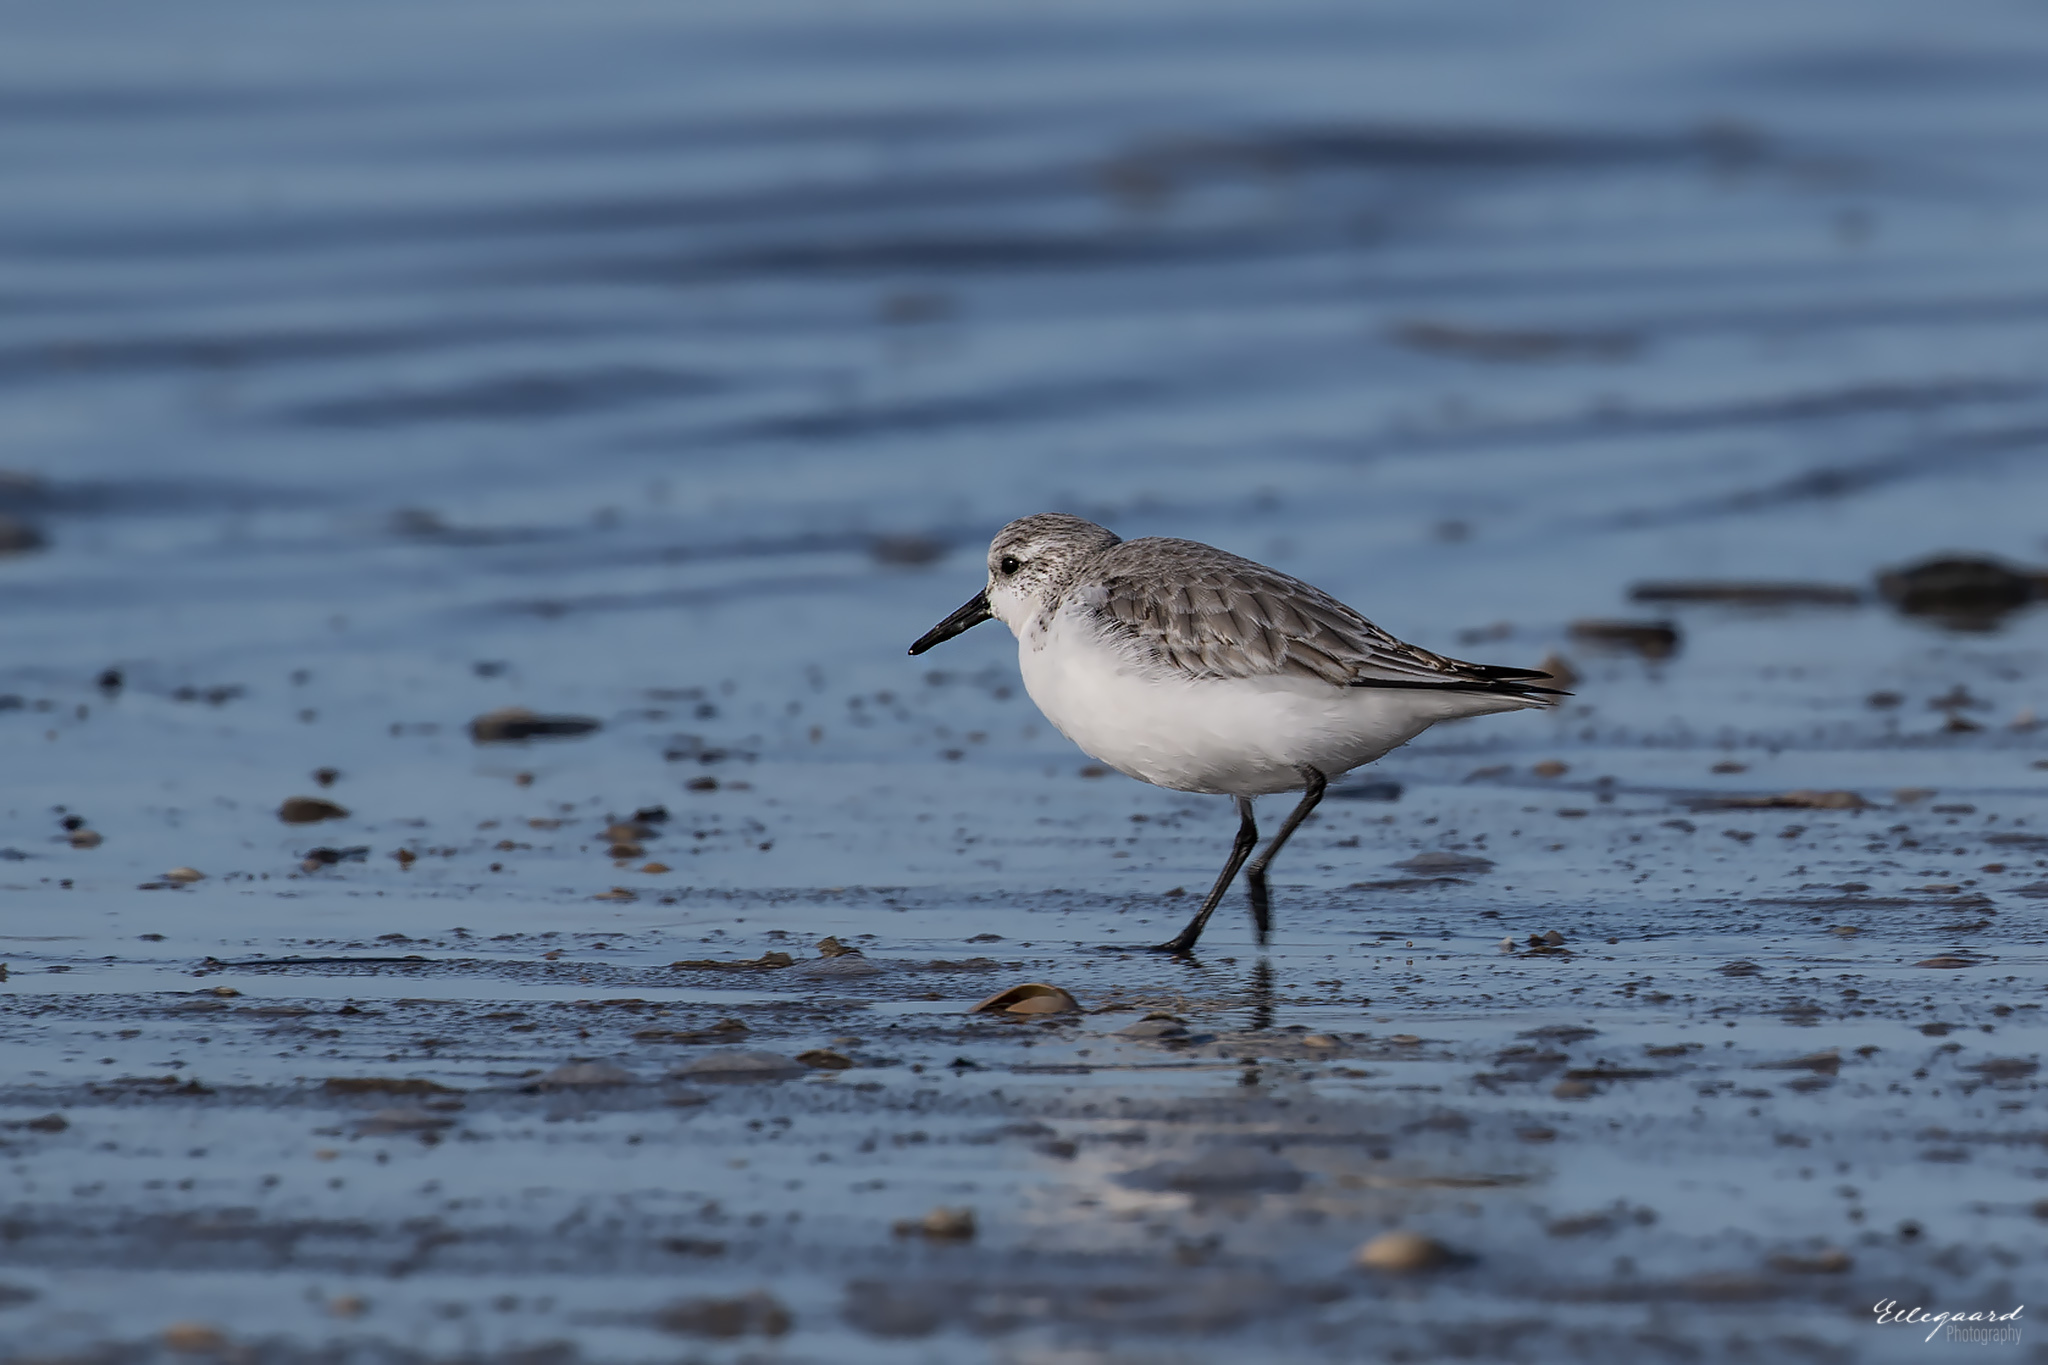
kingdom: Animalia
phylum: Chordata
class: Aves
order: Charadriiformes
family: Scolopacidae
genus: Calidris
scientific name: Calidris alba
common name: Sanderling
